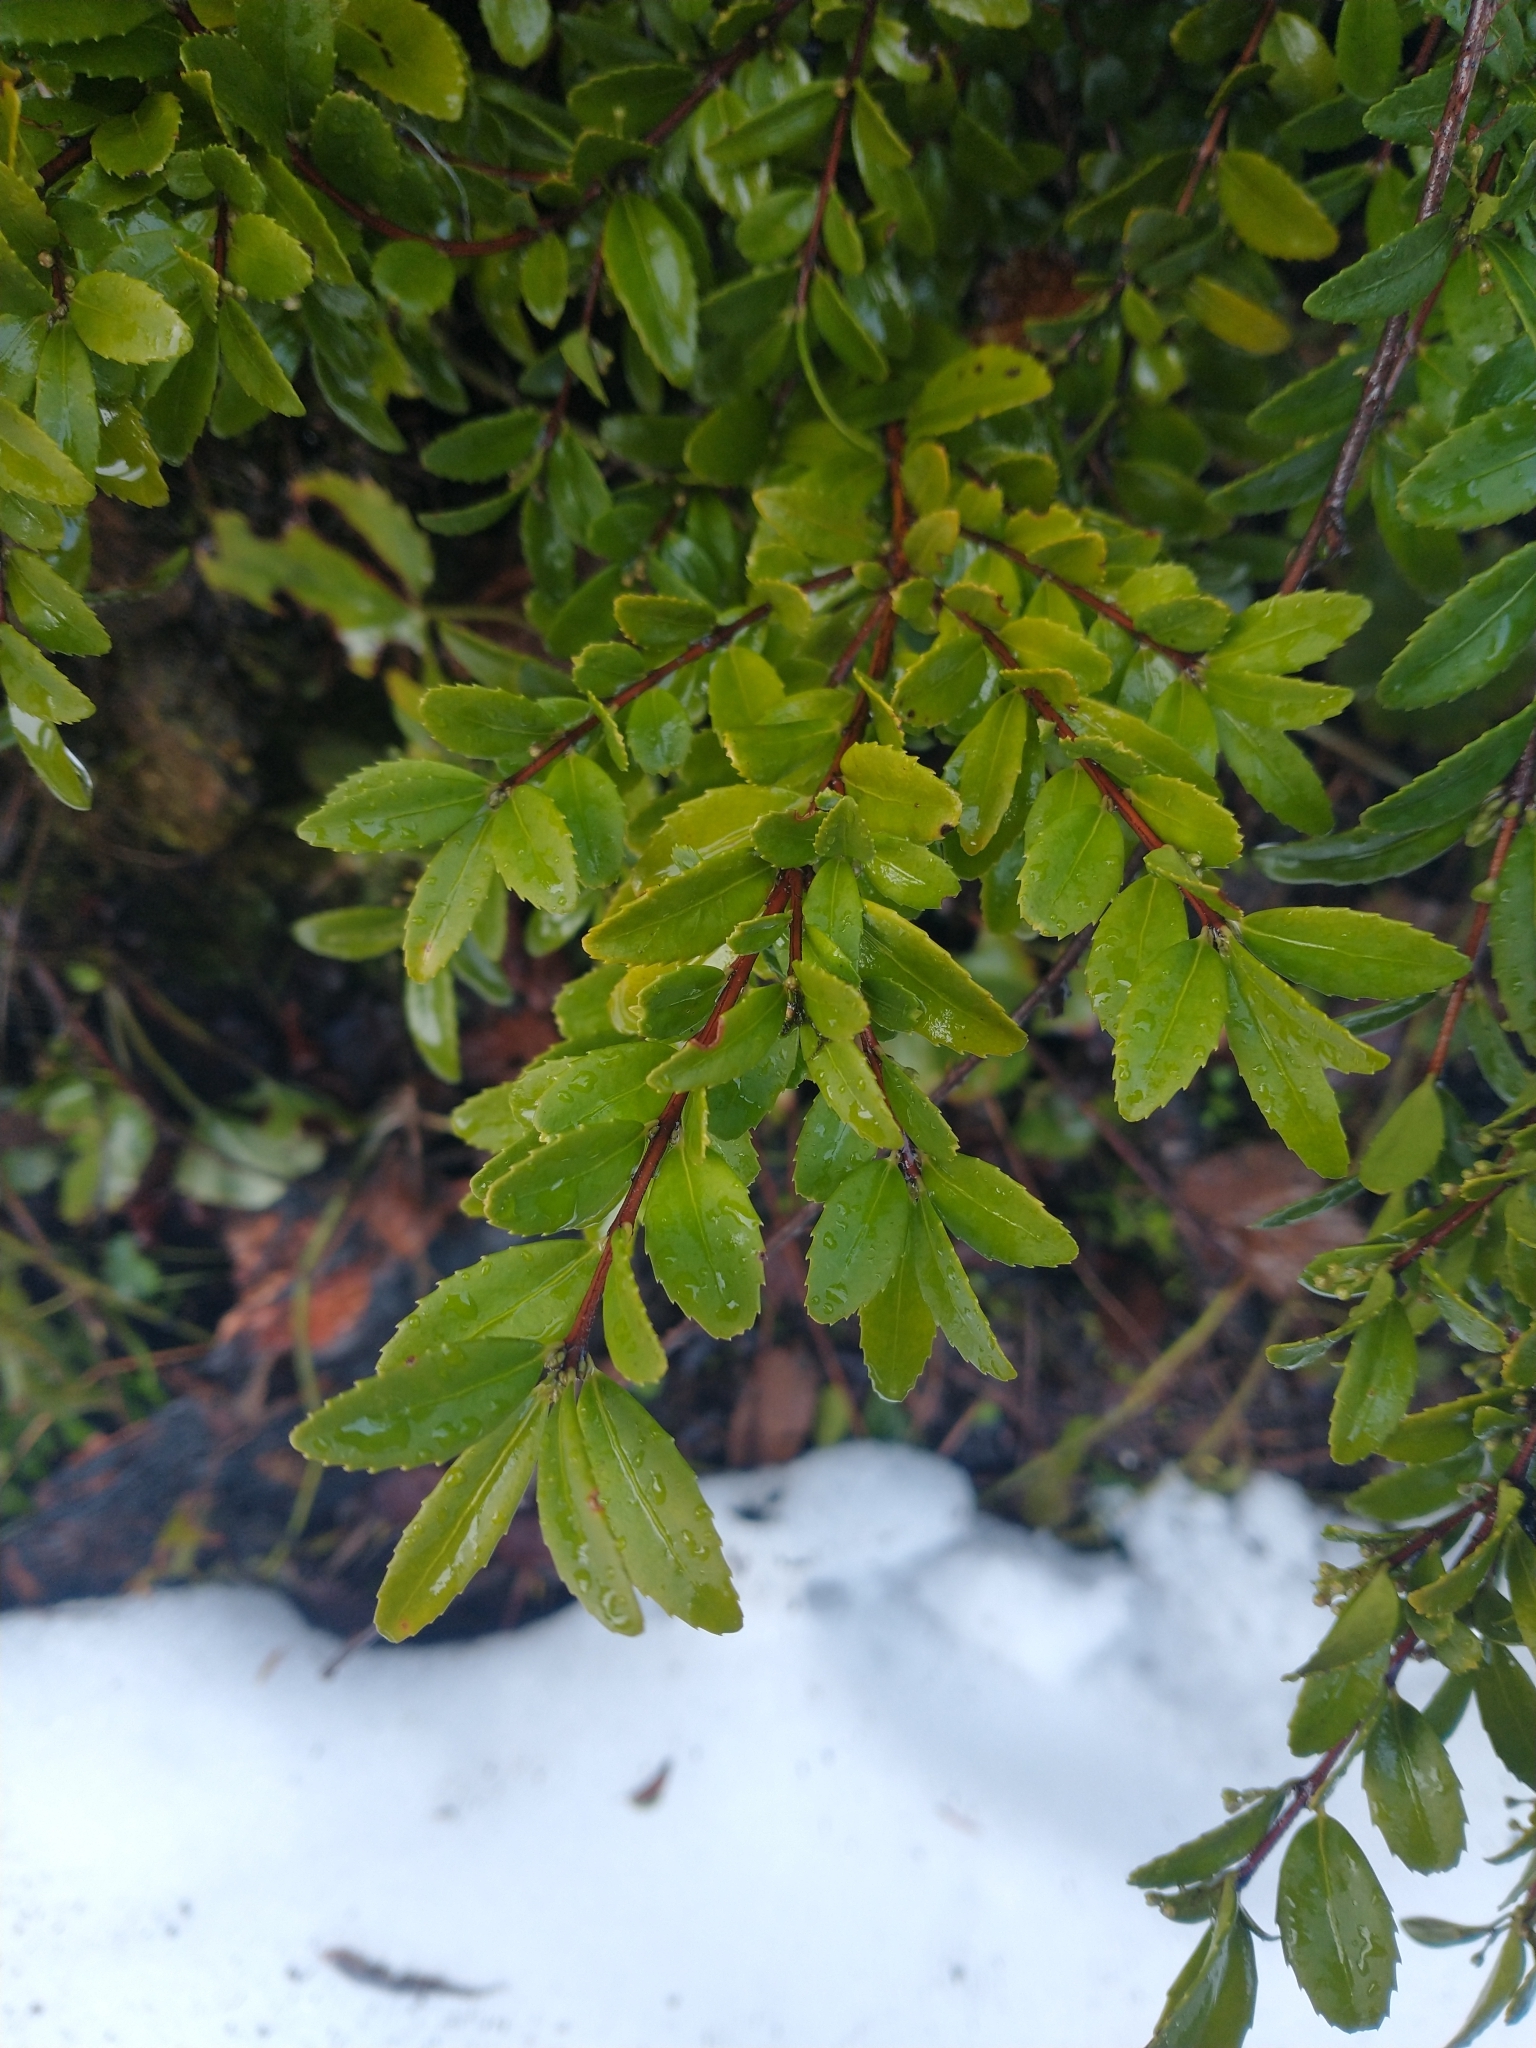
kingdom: Plantae
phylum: Tracheophyta
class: Magnoliopsida
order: Celastrales
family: Celastraceae
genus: Paxistima
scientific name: Paxistima myrsinites
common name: Mountain-lover
